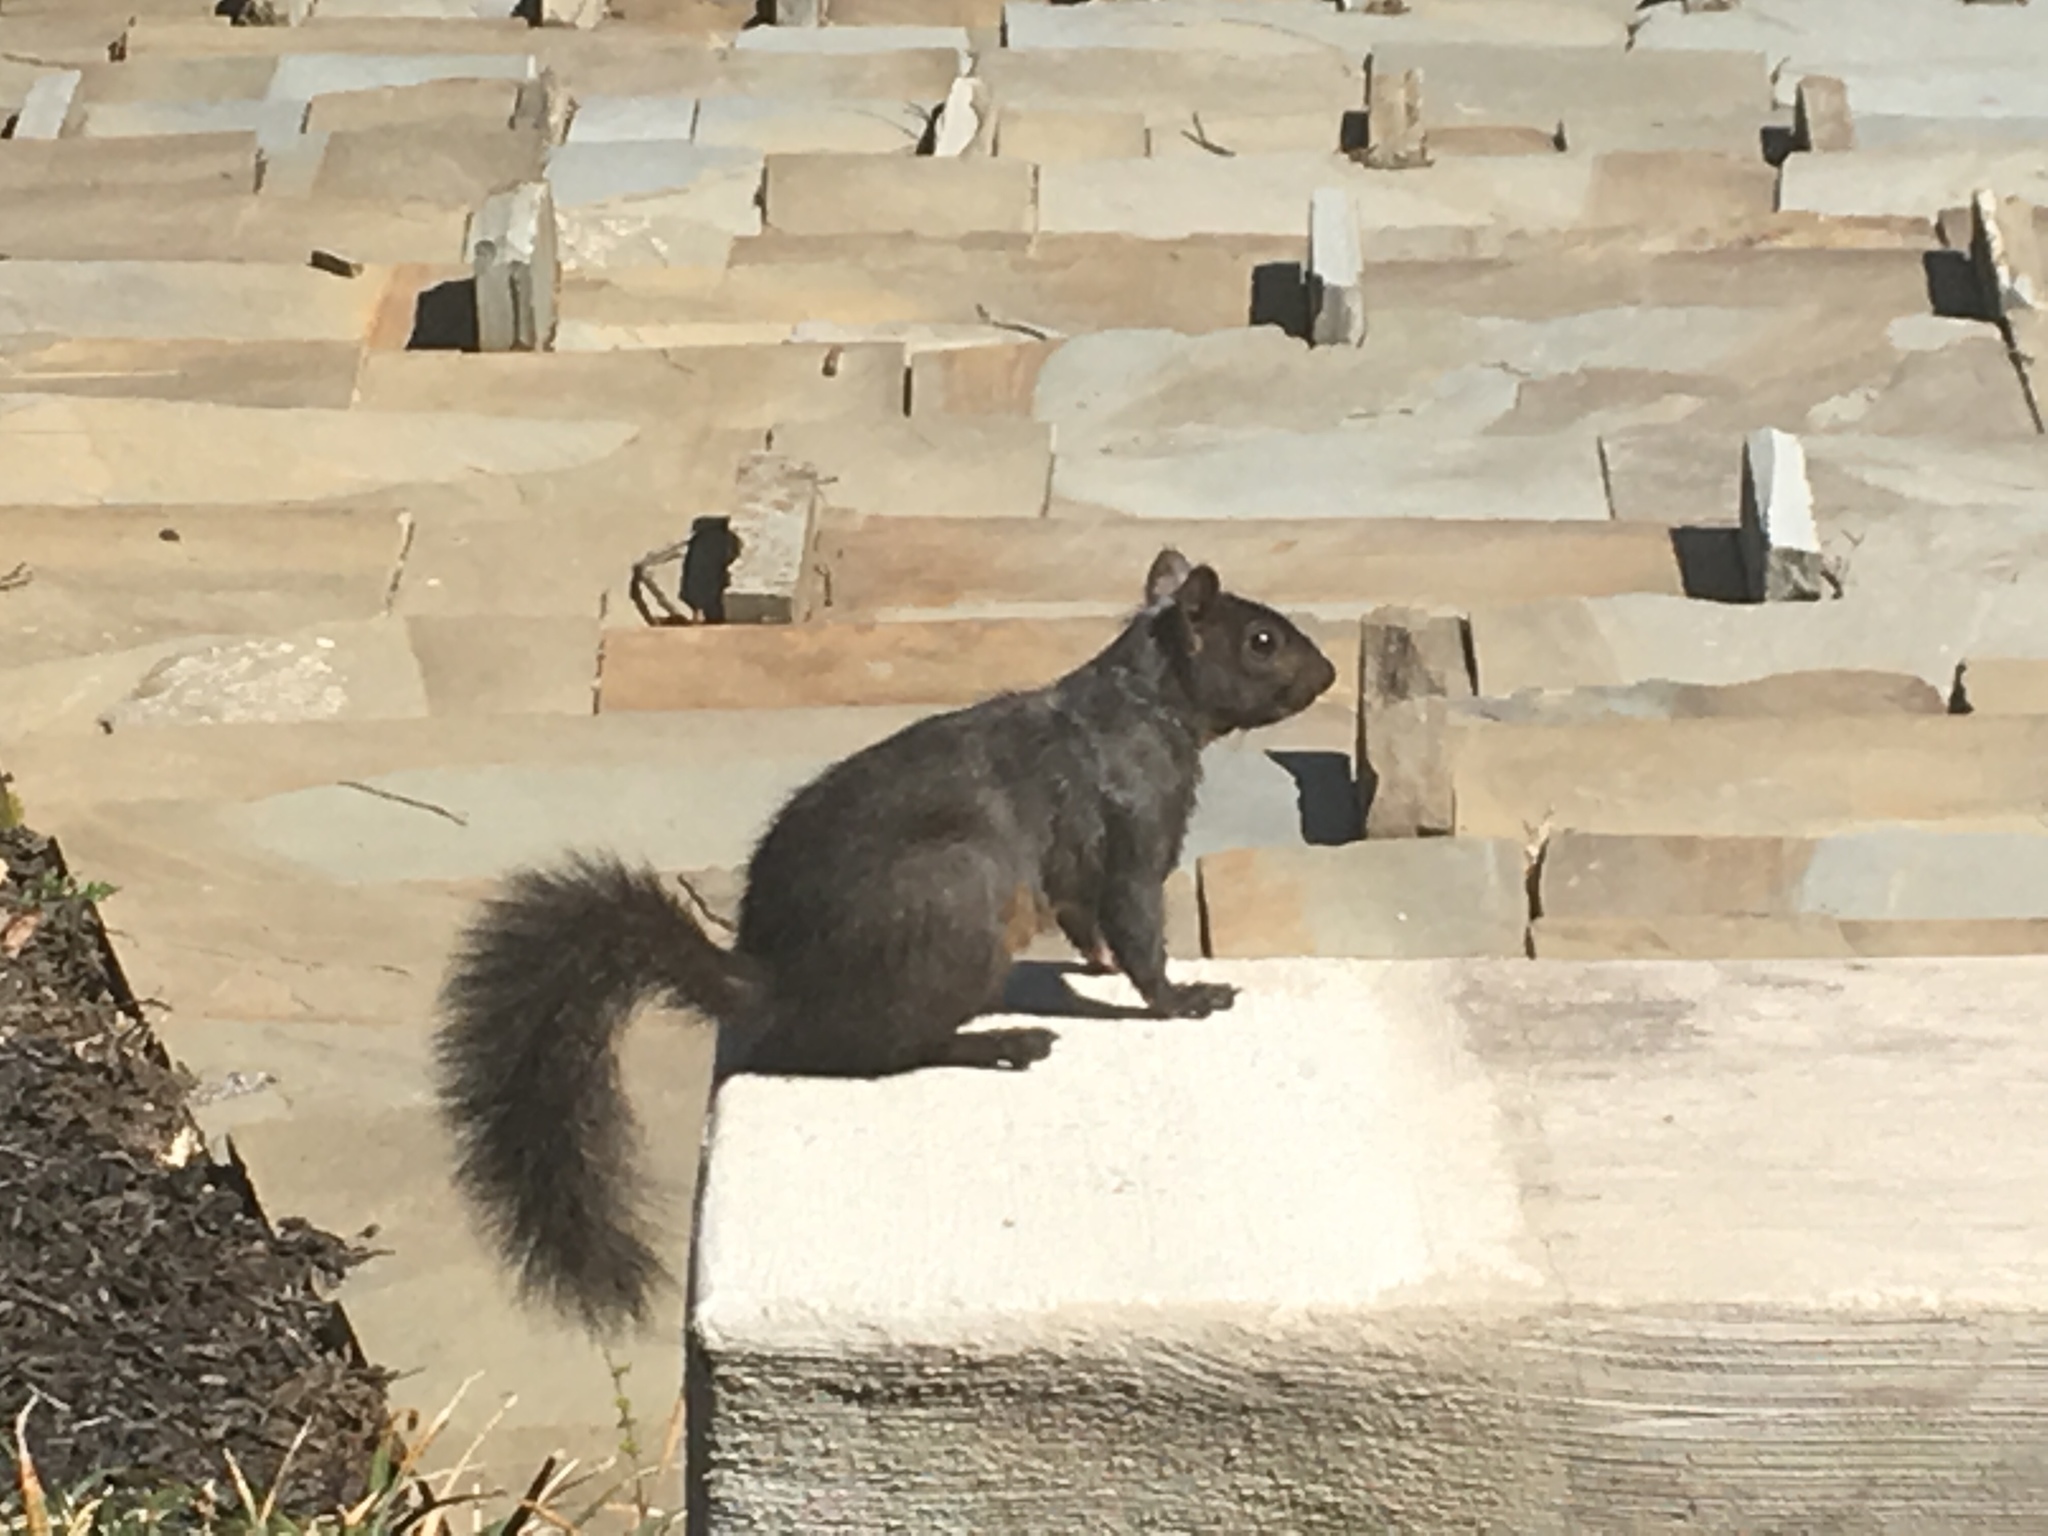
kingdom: Animalia
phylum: Chordata
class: Mammalia
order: Rodentia
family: Sciuridae
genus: Sciurus
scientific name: Sciurus carolinensis
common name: Eastern gray squirrel
